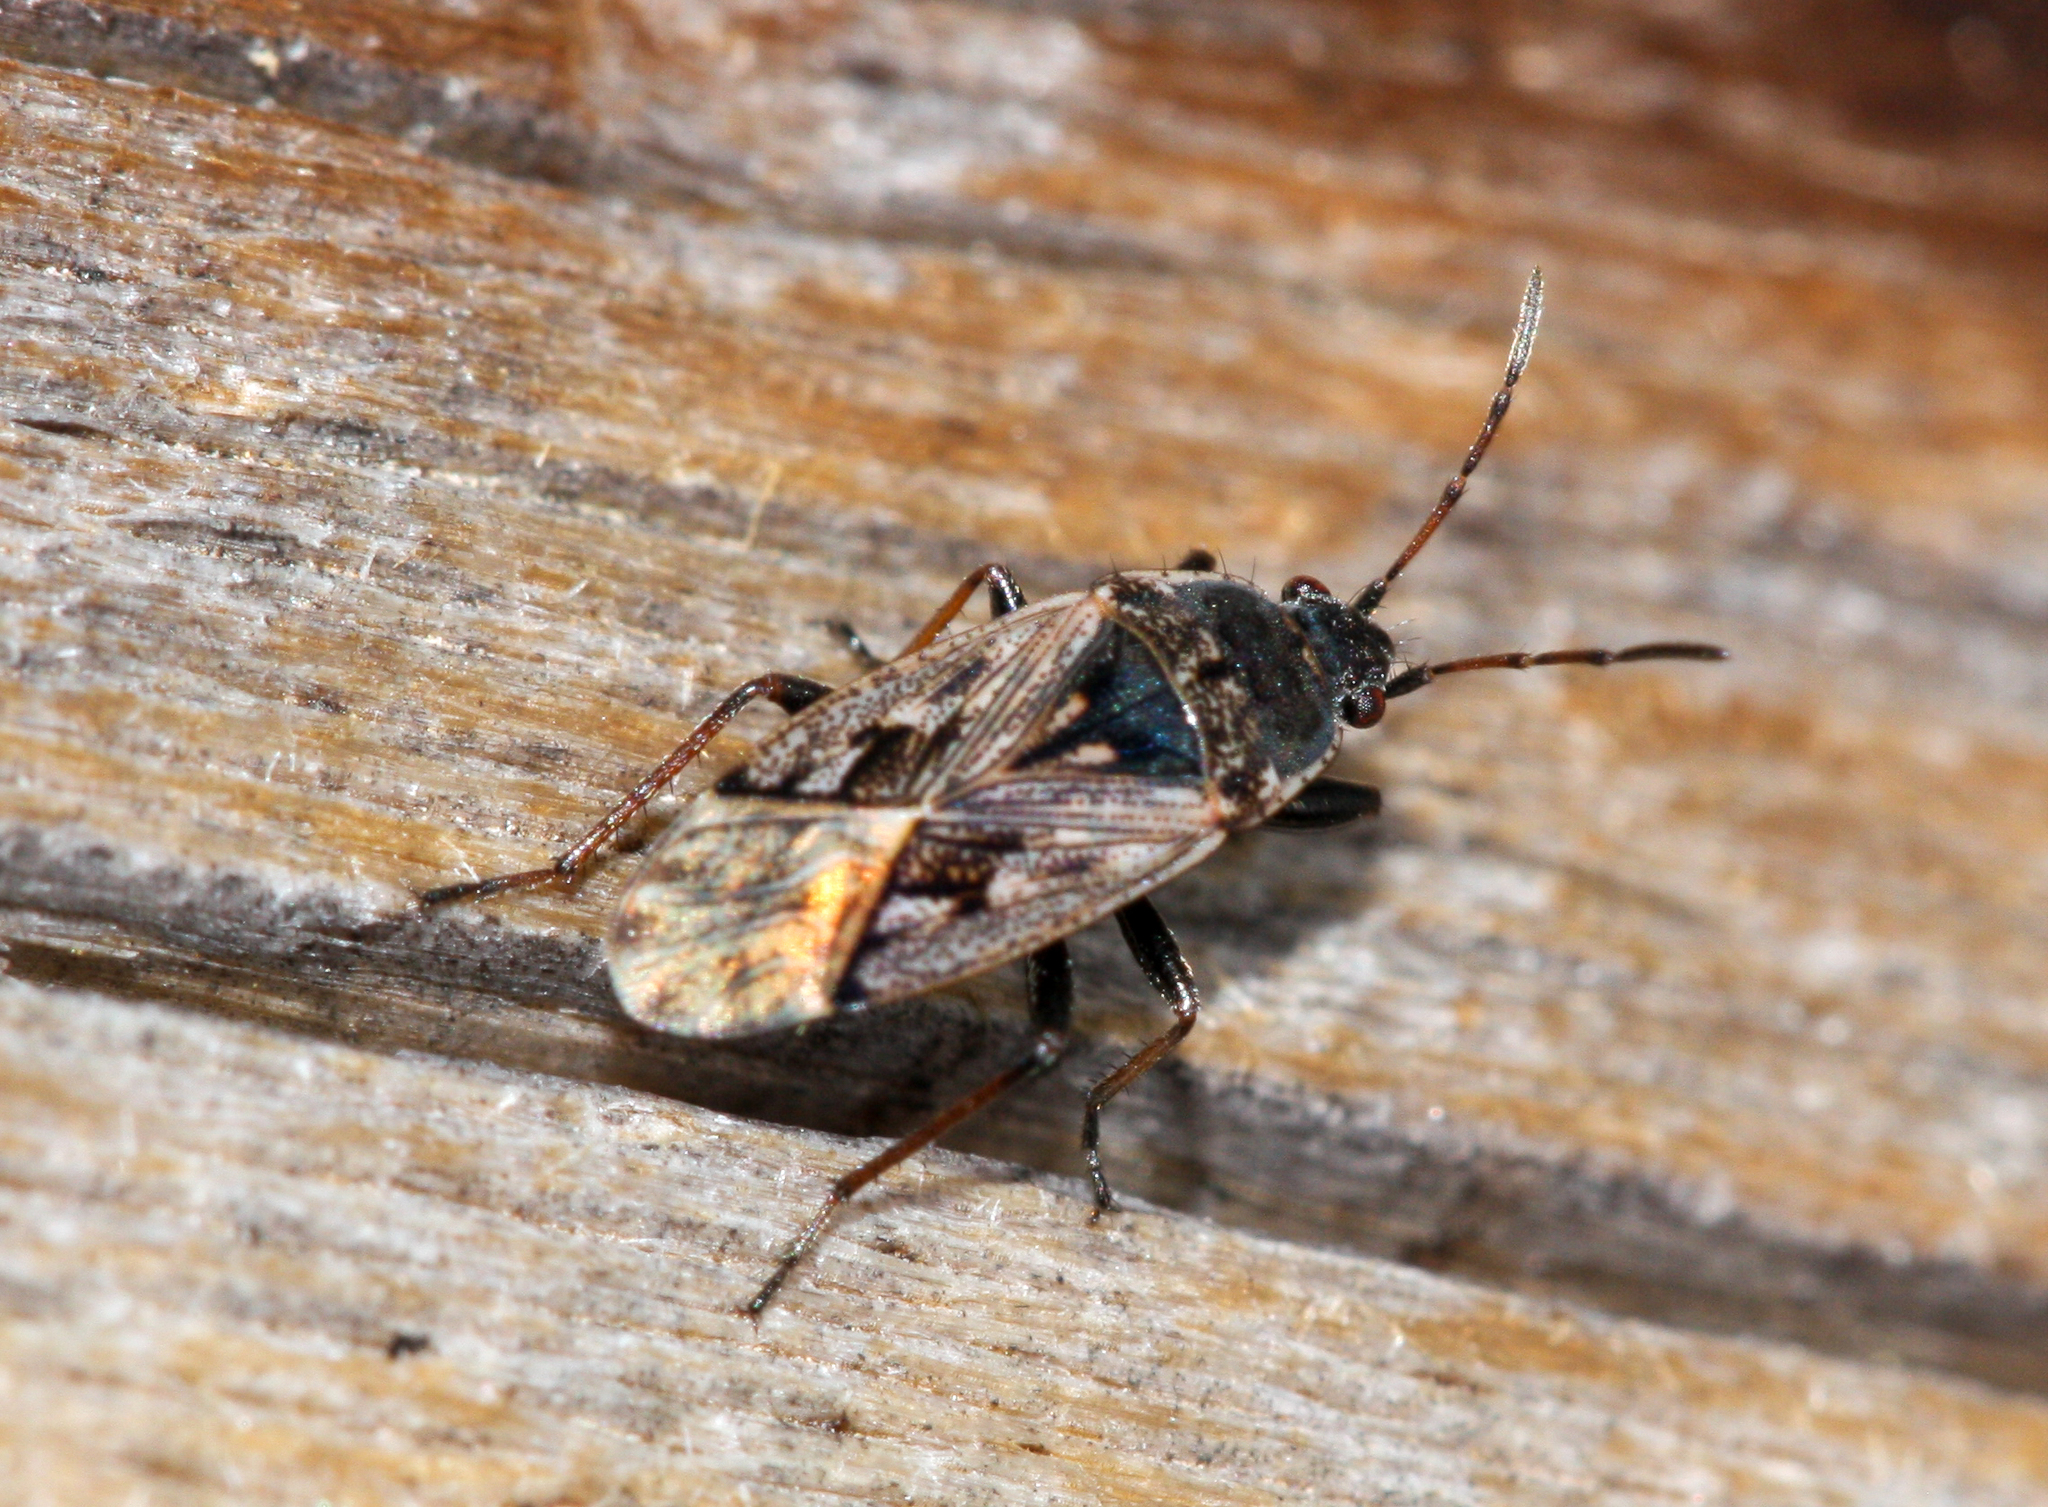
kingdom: Animalia
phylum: Arthropoda
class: Insecta
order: Hemiptera
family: Rhyparochromidae
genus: Sphragisticus
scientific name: Sphragisticus nebulosus
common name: Dirt-colored seed bug
